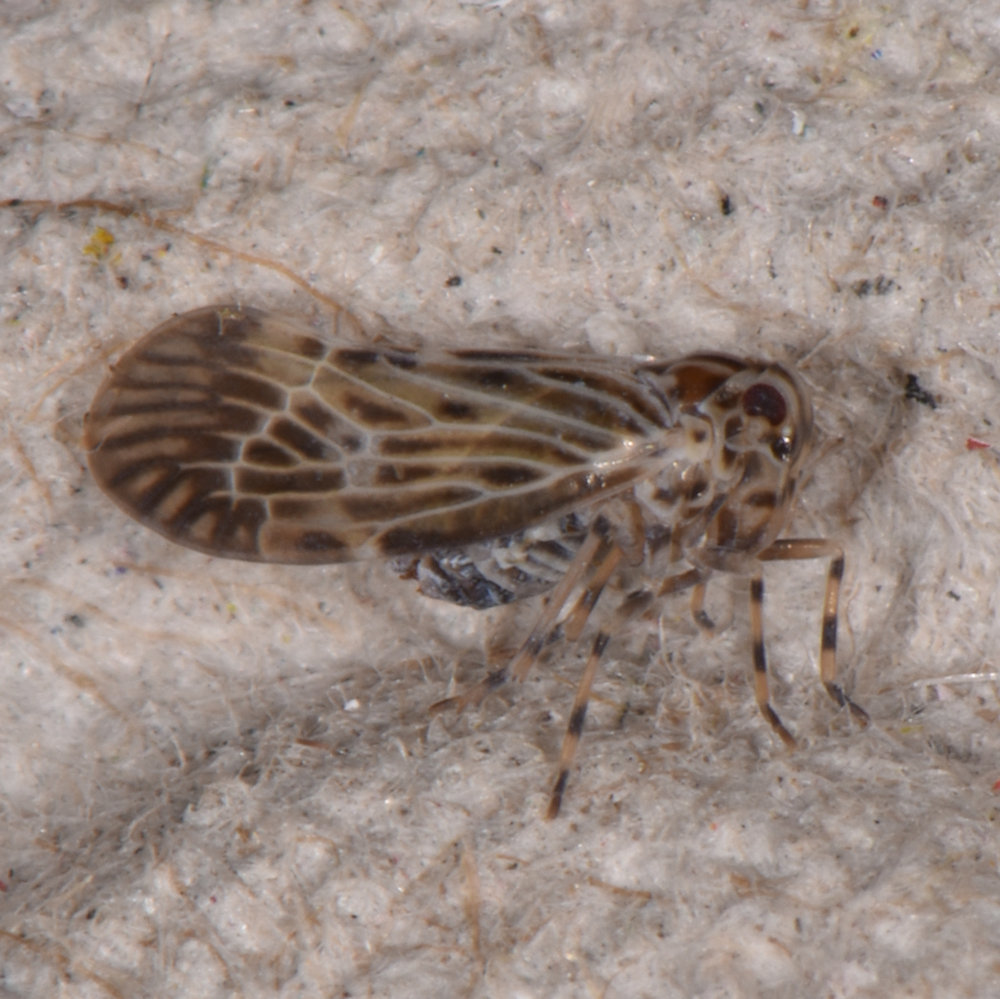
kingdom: Animalia
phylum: Arthropoda
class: Insecta
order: Hemiptera
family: Derbidae
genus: Cedusa
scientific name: Cedusa maculata
